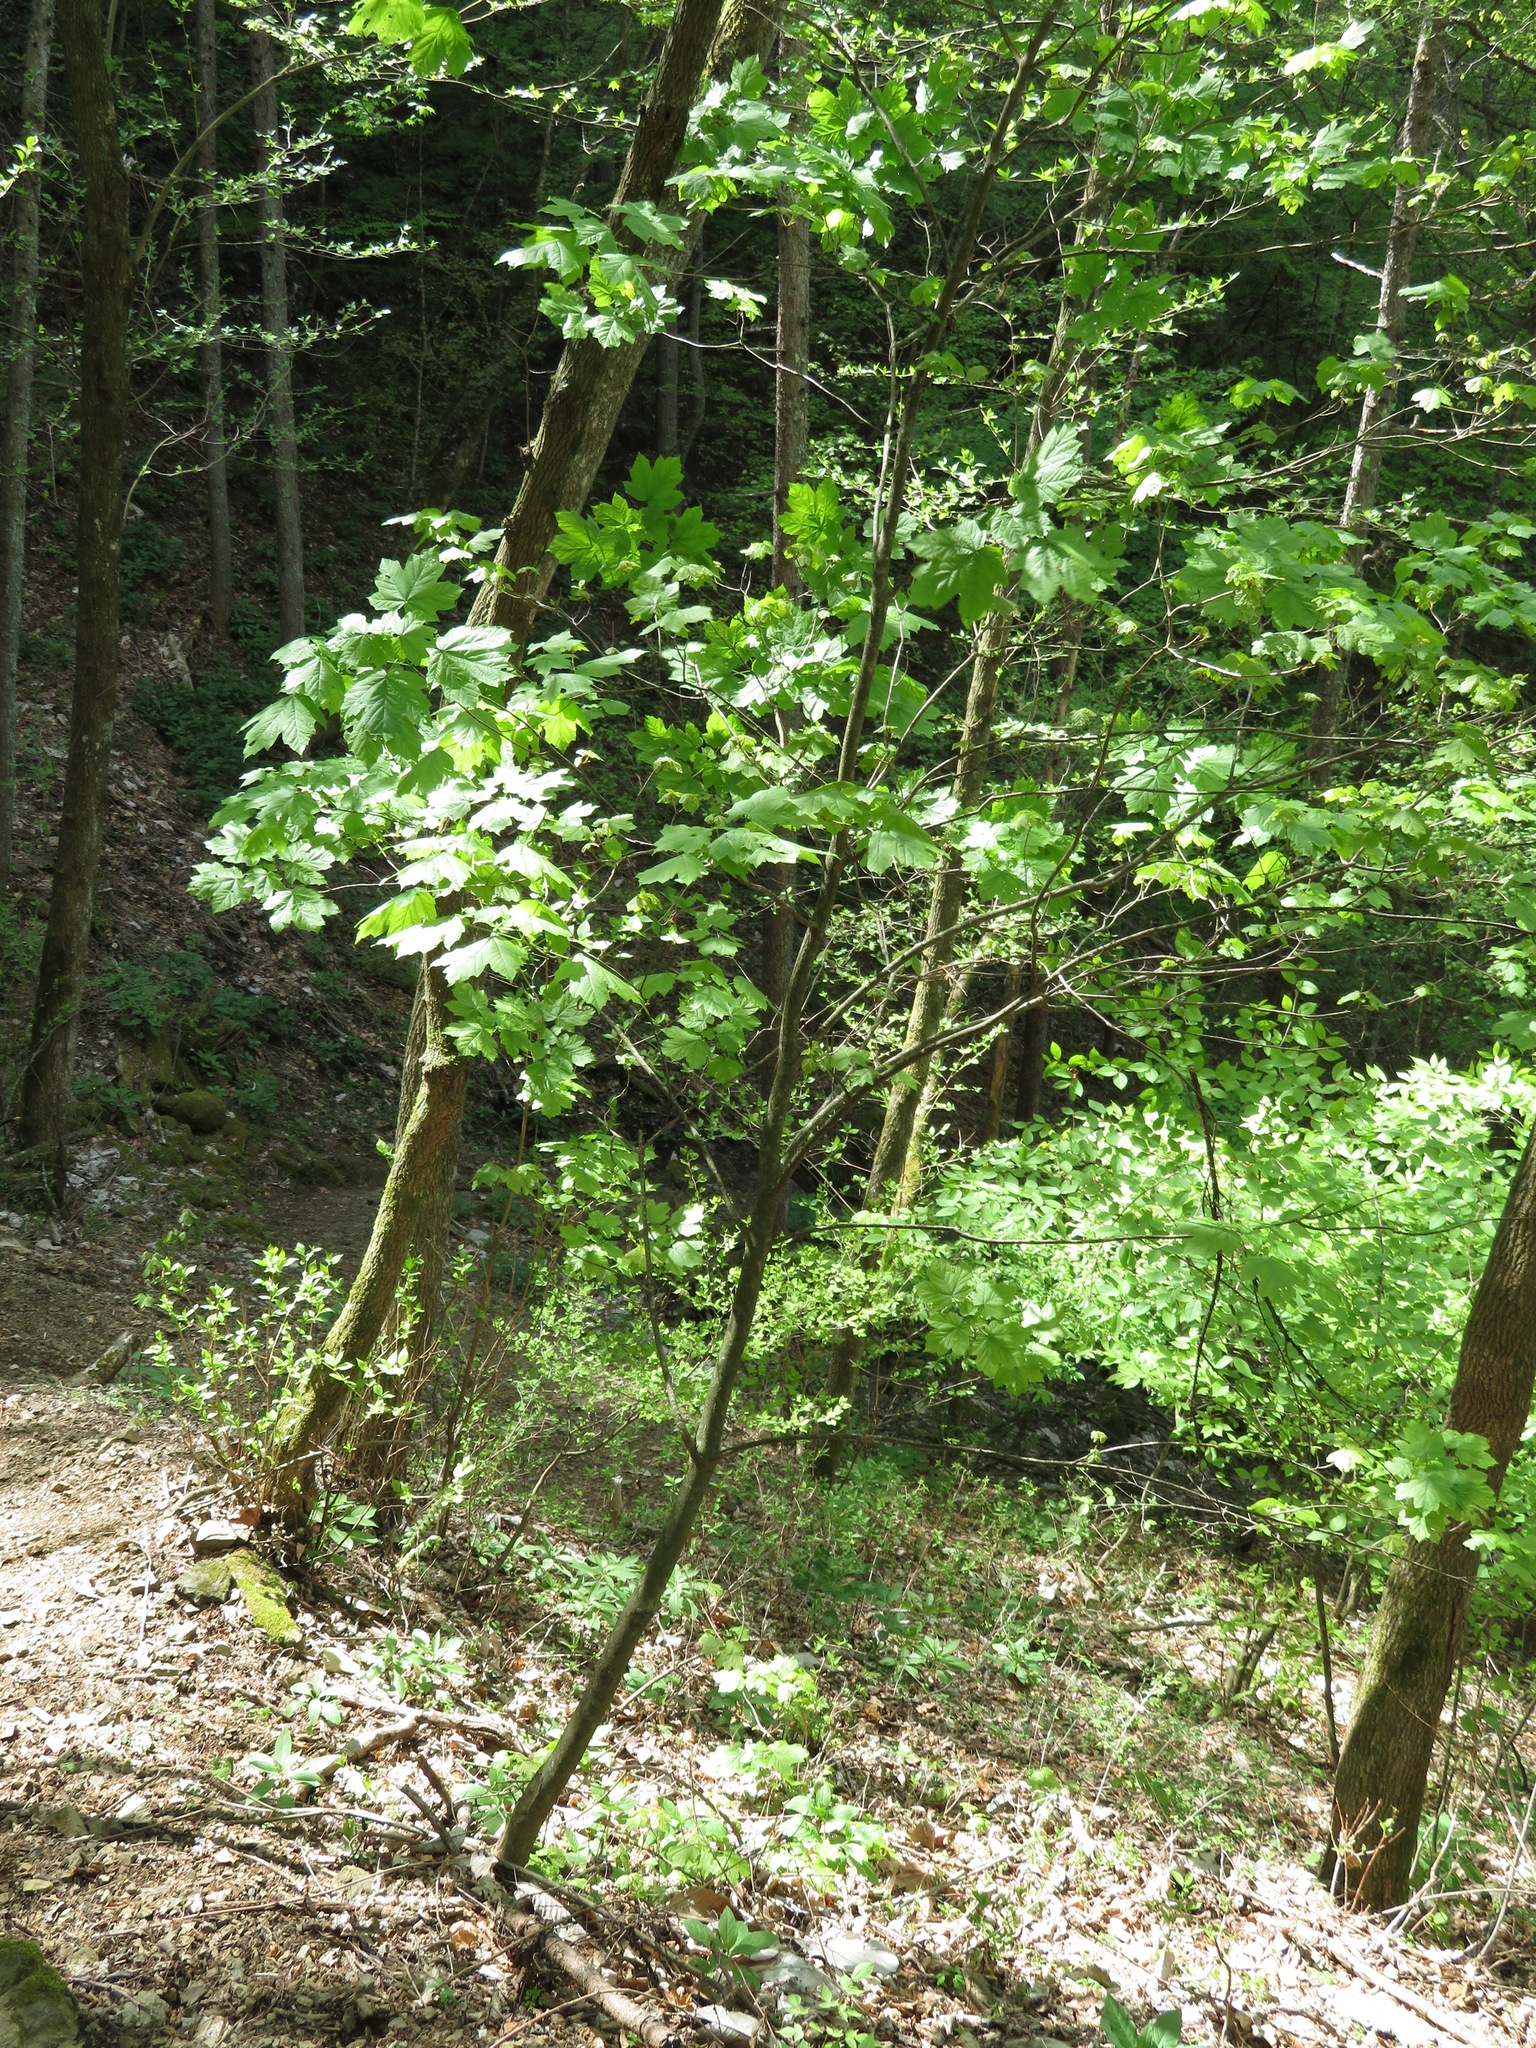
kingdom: Plantae
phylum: Tracheophyta
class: Magnoliopsida
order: Sapindales
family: Sapindaceae
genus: Acer
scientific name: Acer diabolicum
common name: Devil maple
